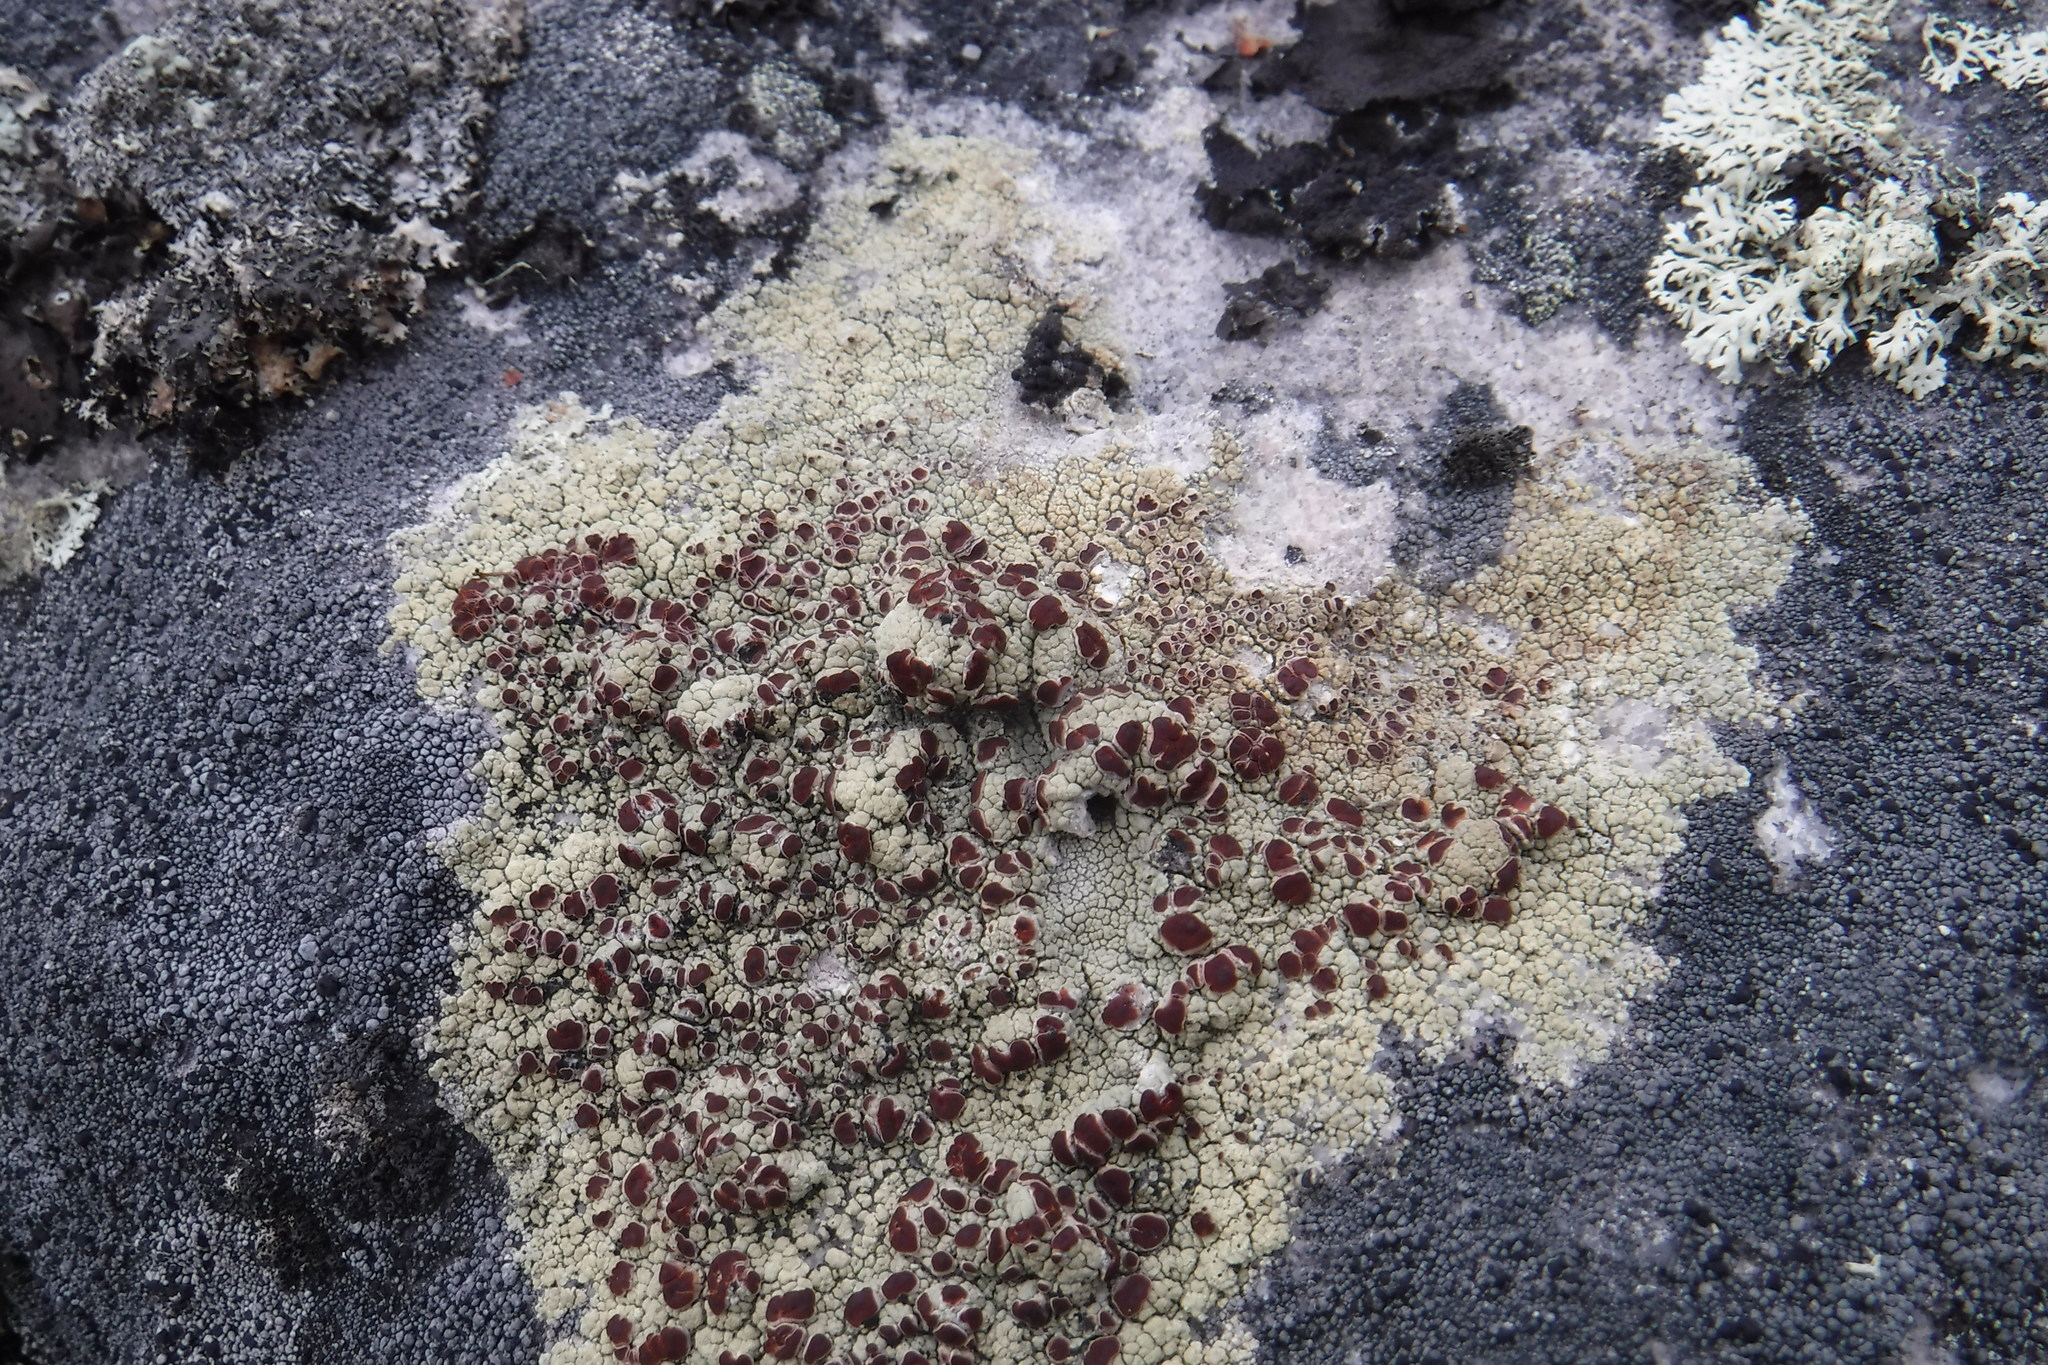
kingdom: Fungi
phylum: Ascomycota
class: Lecanoromycetes
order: Umbilicariales
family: Ophioparmaceae
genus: Ophioparma
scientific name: Ophioparma lapponica
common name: Lapland bloodspot lichen
